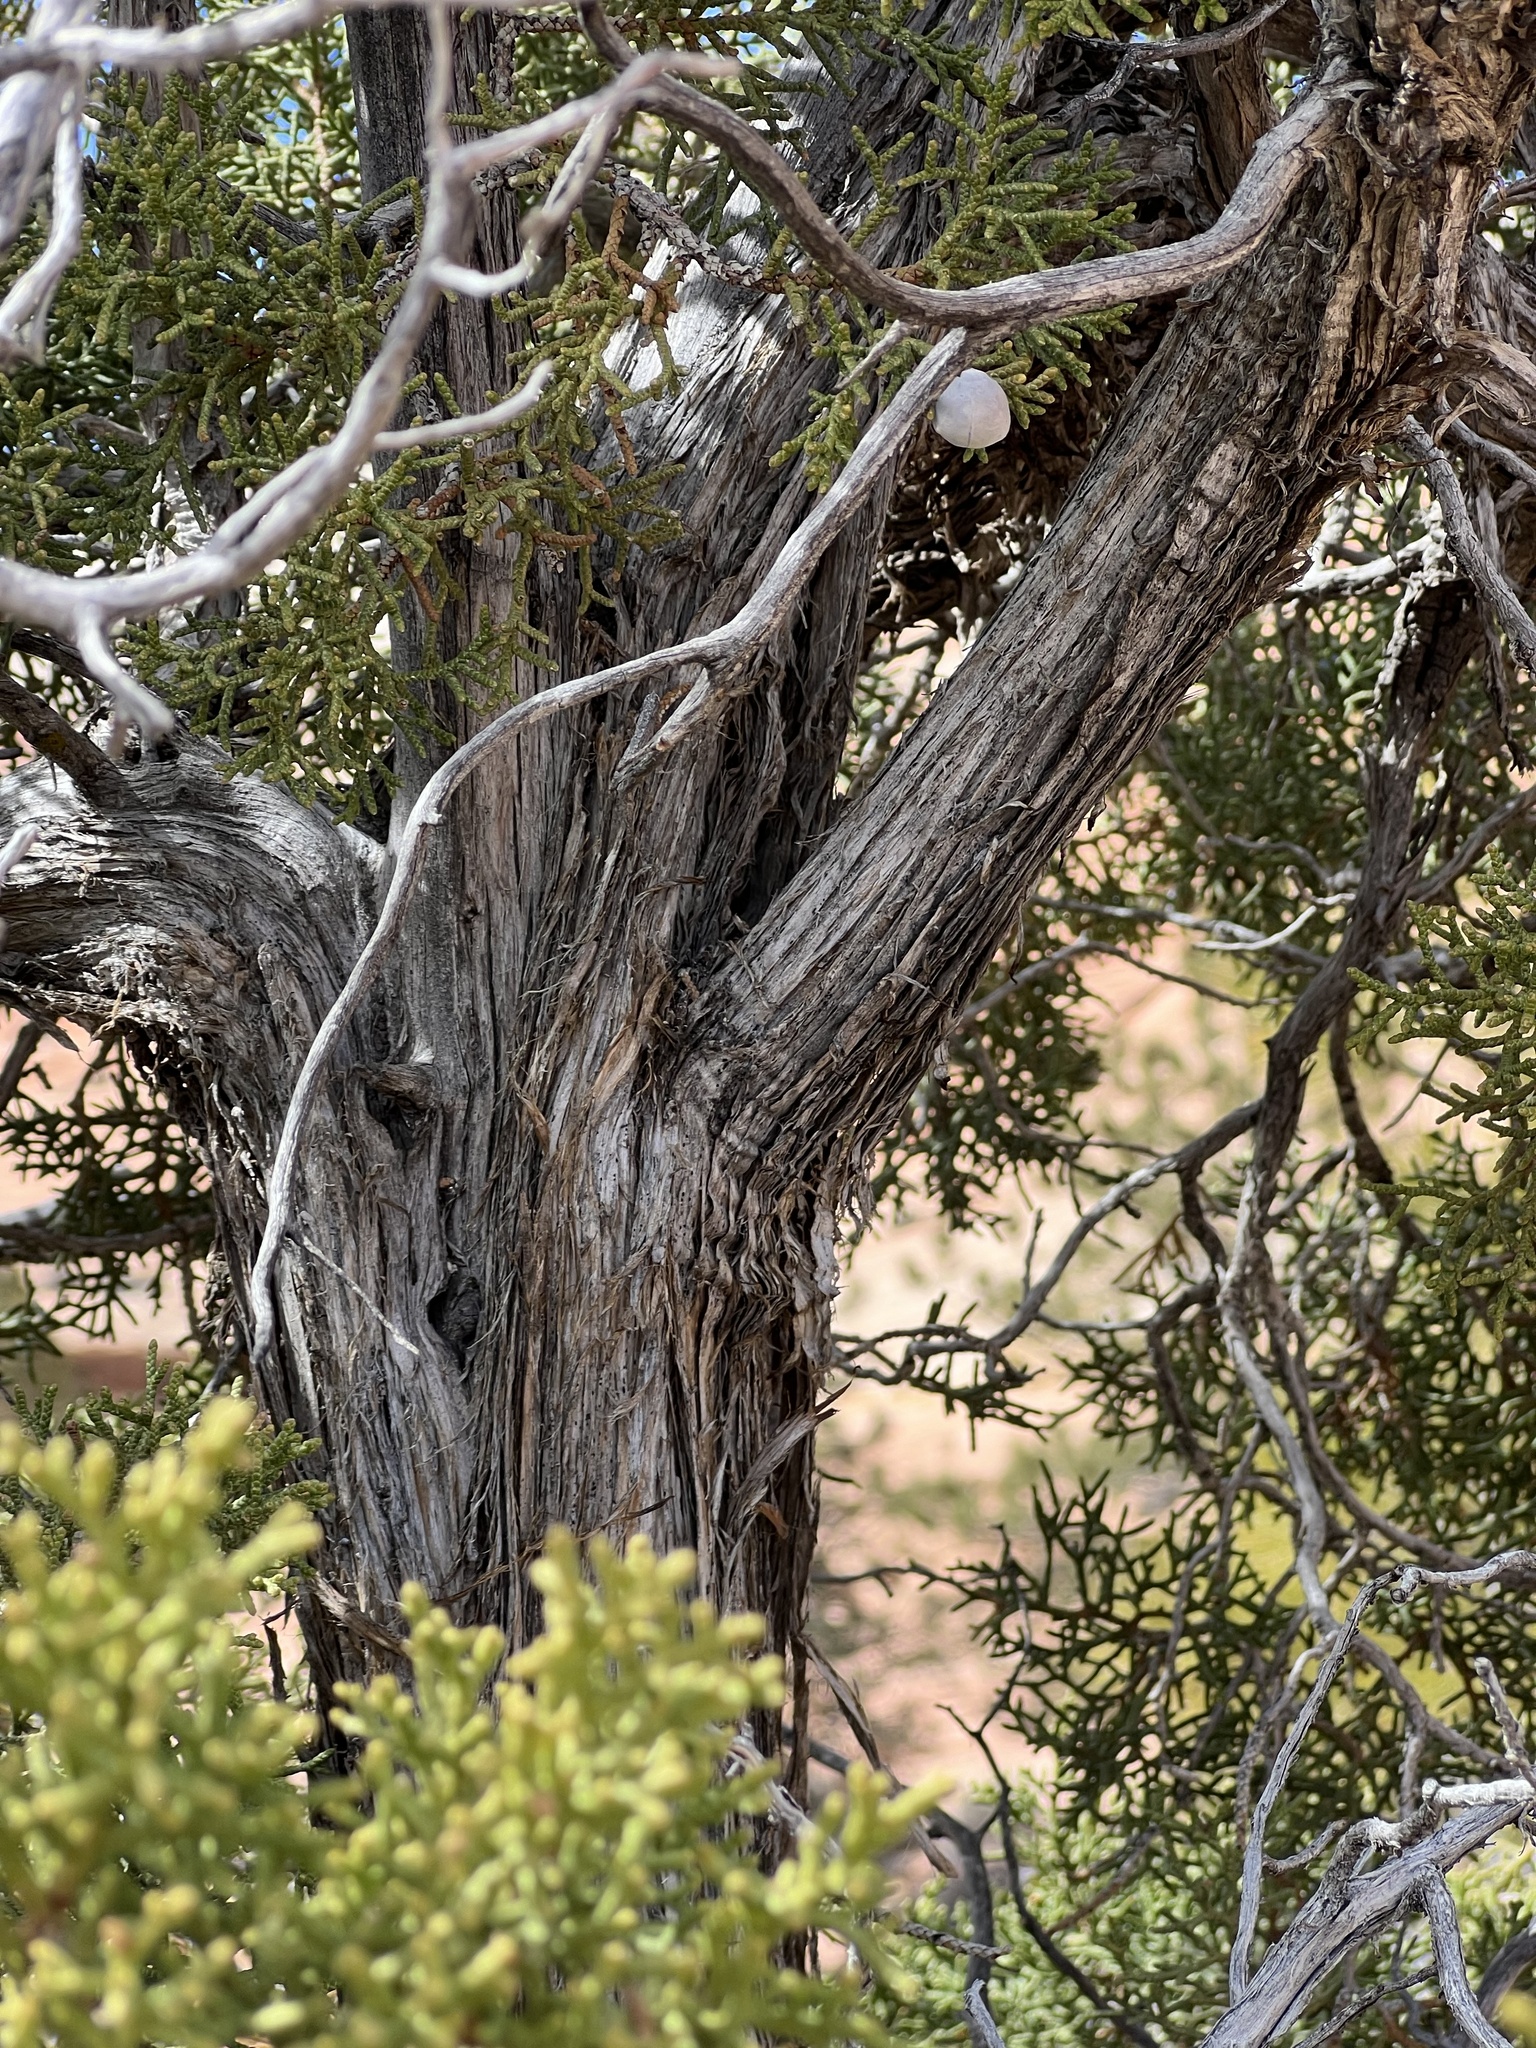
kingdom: Plantae
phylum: Tracheophyta
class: Pinopsida
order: Pinales
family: Cupressaceae
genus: Juniperus
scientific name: Juniperus osteosperma
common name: Utah juniper
